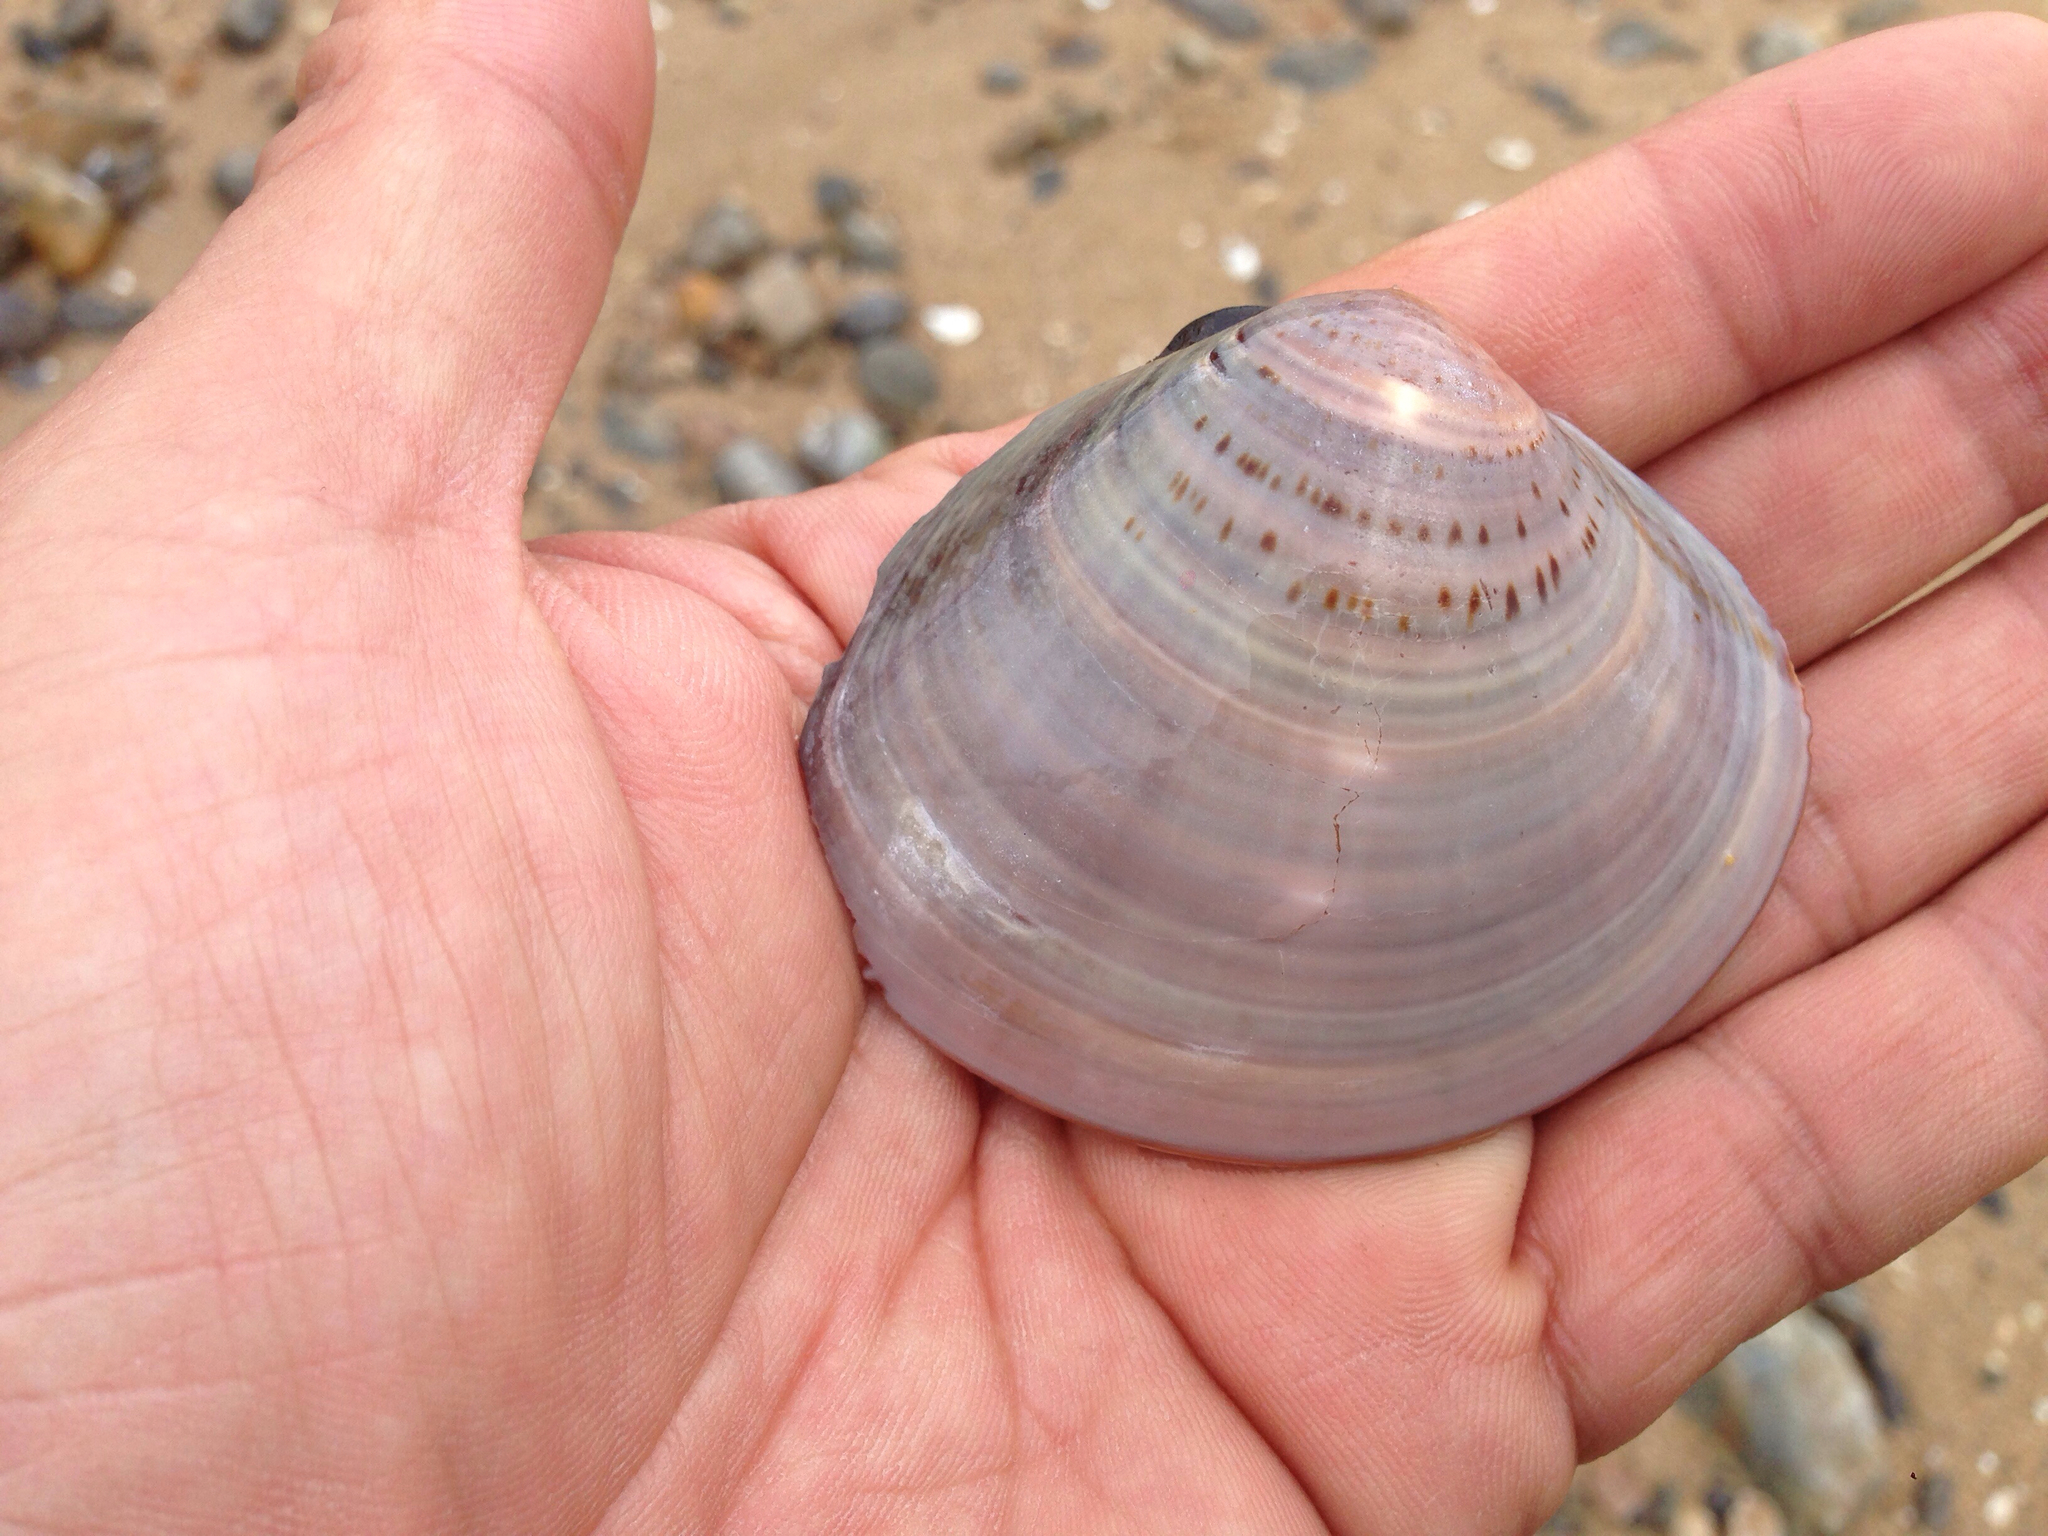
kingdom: Animalia
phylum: Mollusca
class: Bivalvia
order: Venerida
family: Veneridae
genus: Meretrix
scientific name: Meretrix petechialis
